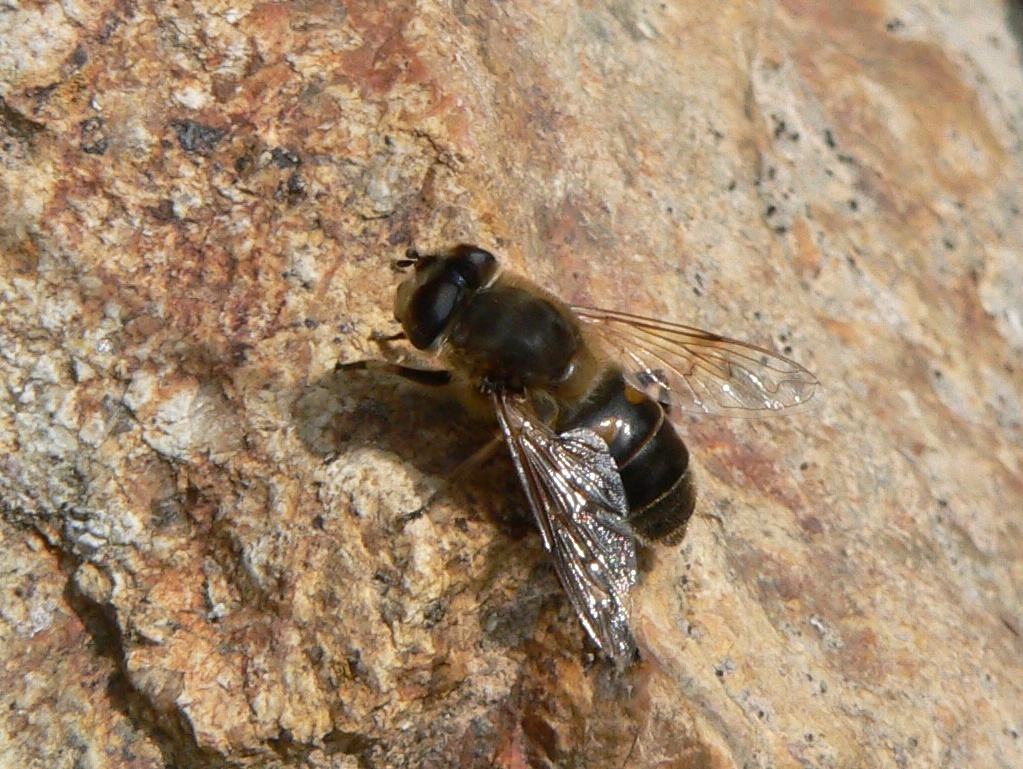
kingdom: Animalia
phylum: Arthropoda
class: Insecta
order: Diptera
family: Syrphidae
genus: Eristalis
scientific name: Eristalis tenax
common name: Drone fly
